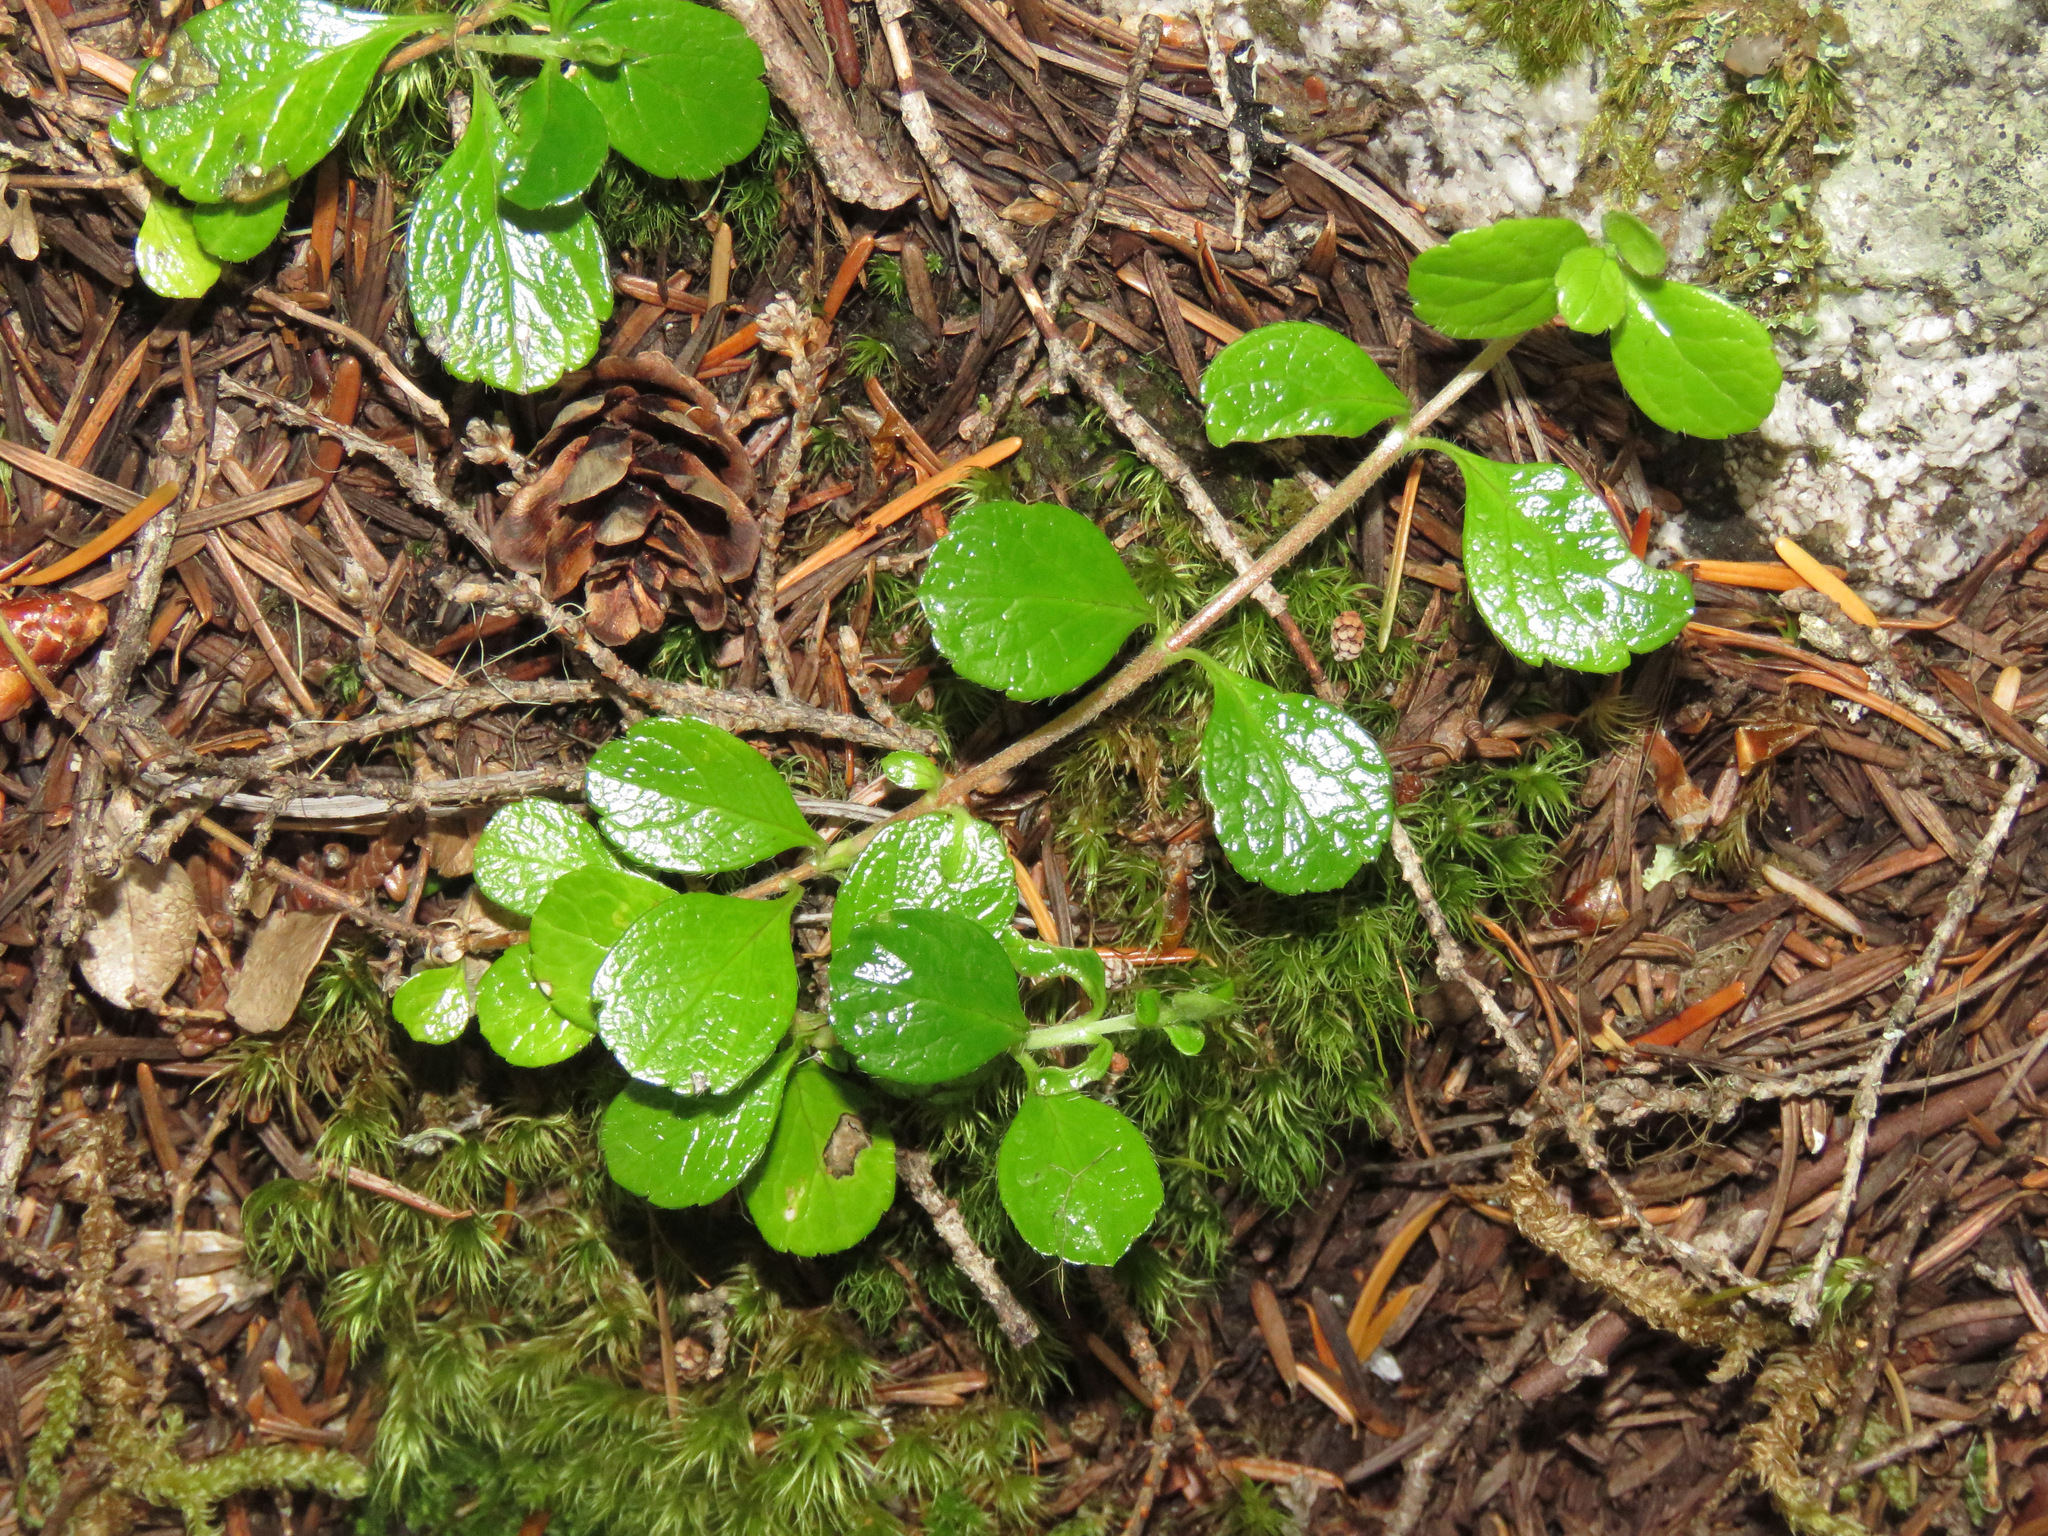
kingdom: Plantae
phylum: Tracheophyta
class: Magnoliopsida
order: Dipsacales
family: Caprifoliaceae
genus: Linnaea
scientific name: Linnaea borealis
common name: Twinflower
